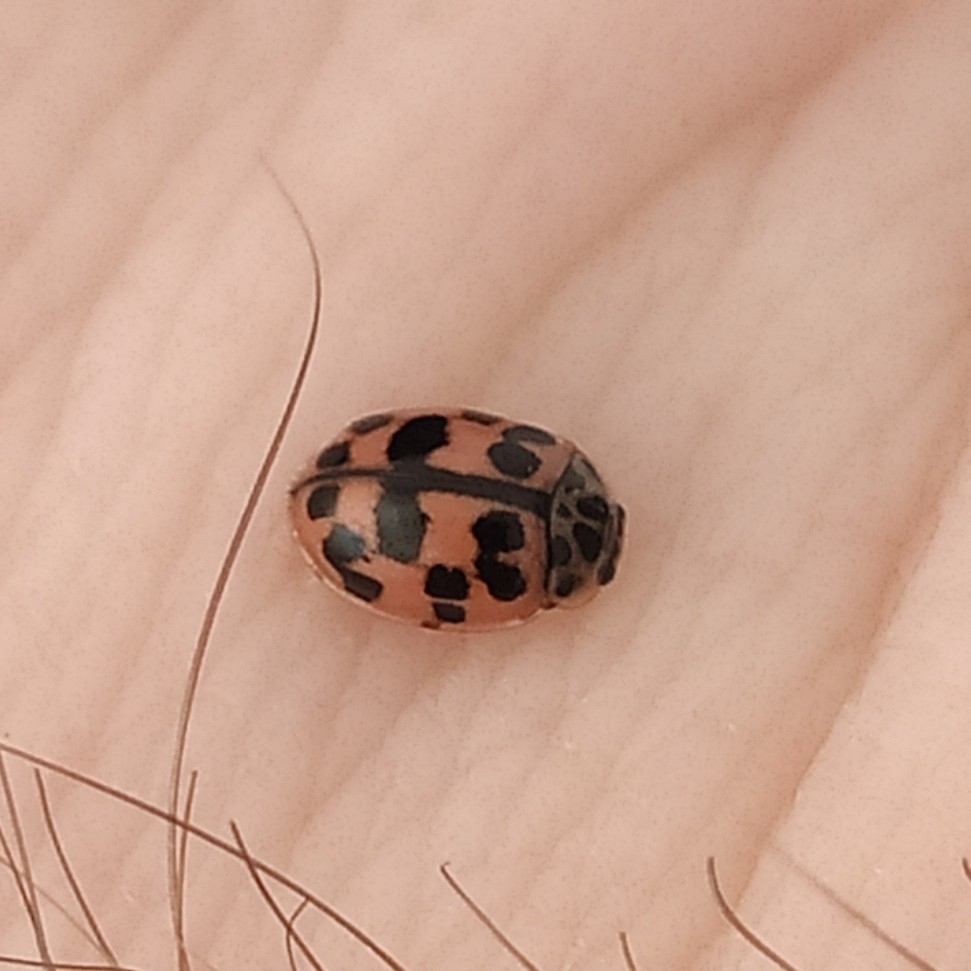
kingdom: Animalia
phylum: Arthropoda
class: Insecta
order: Coleoptera
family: Coccinellidae
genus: Oenopia
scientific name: Oenopia conglobata
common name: Ladybird beetle
